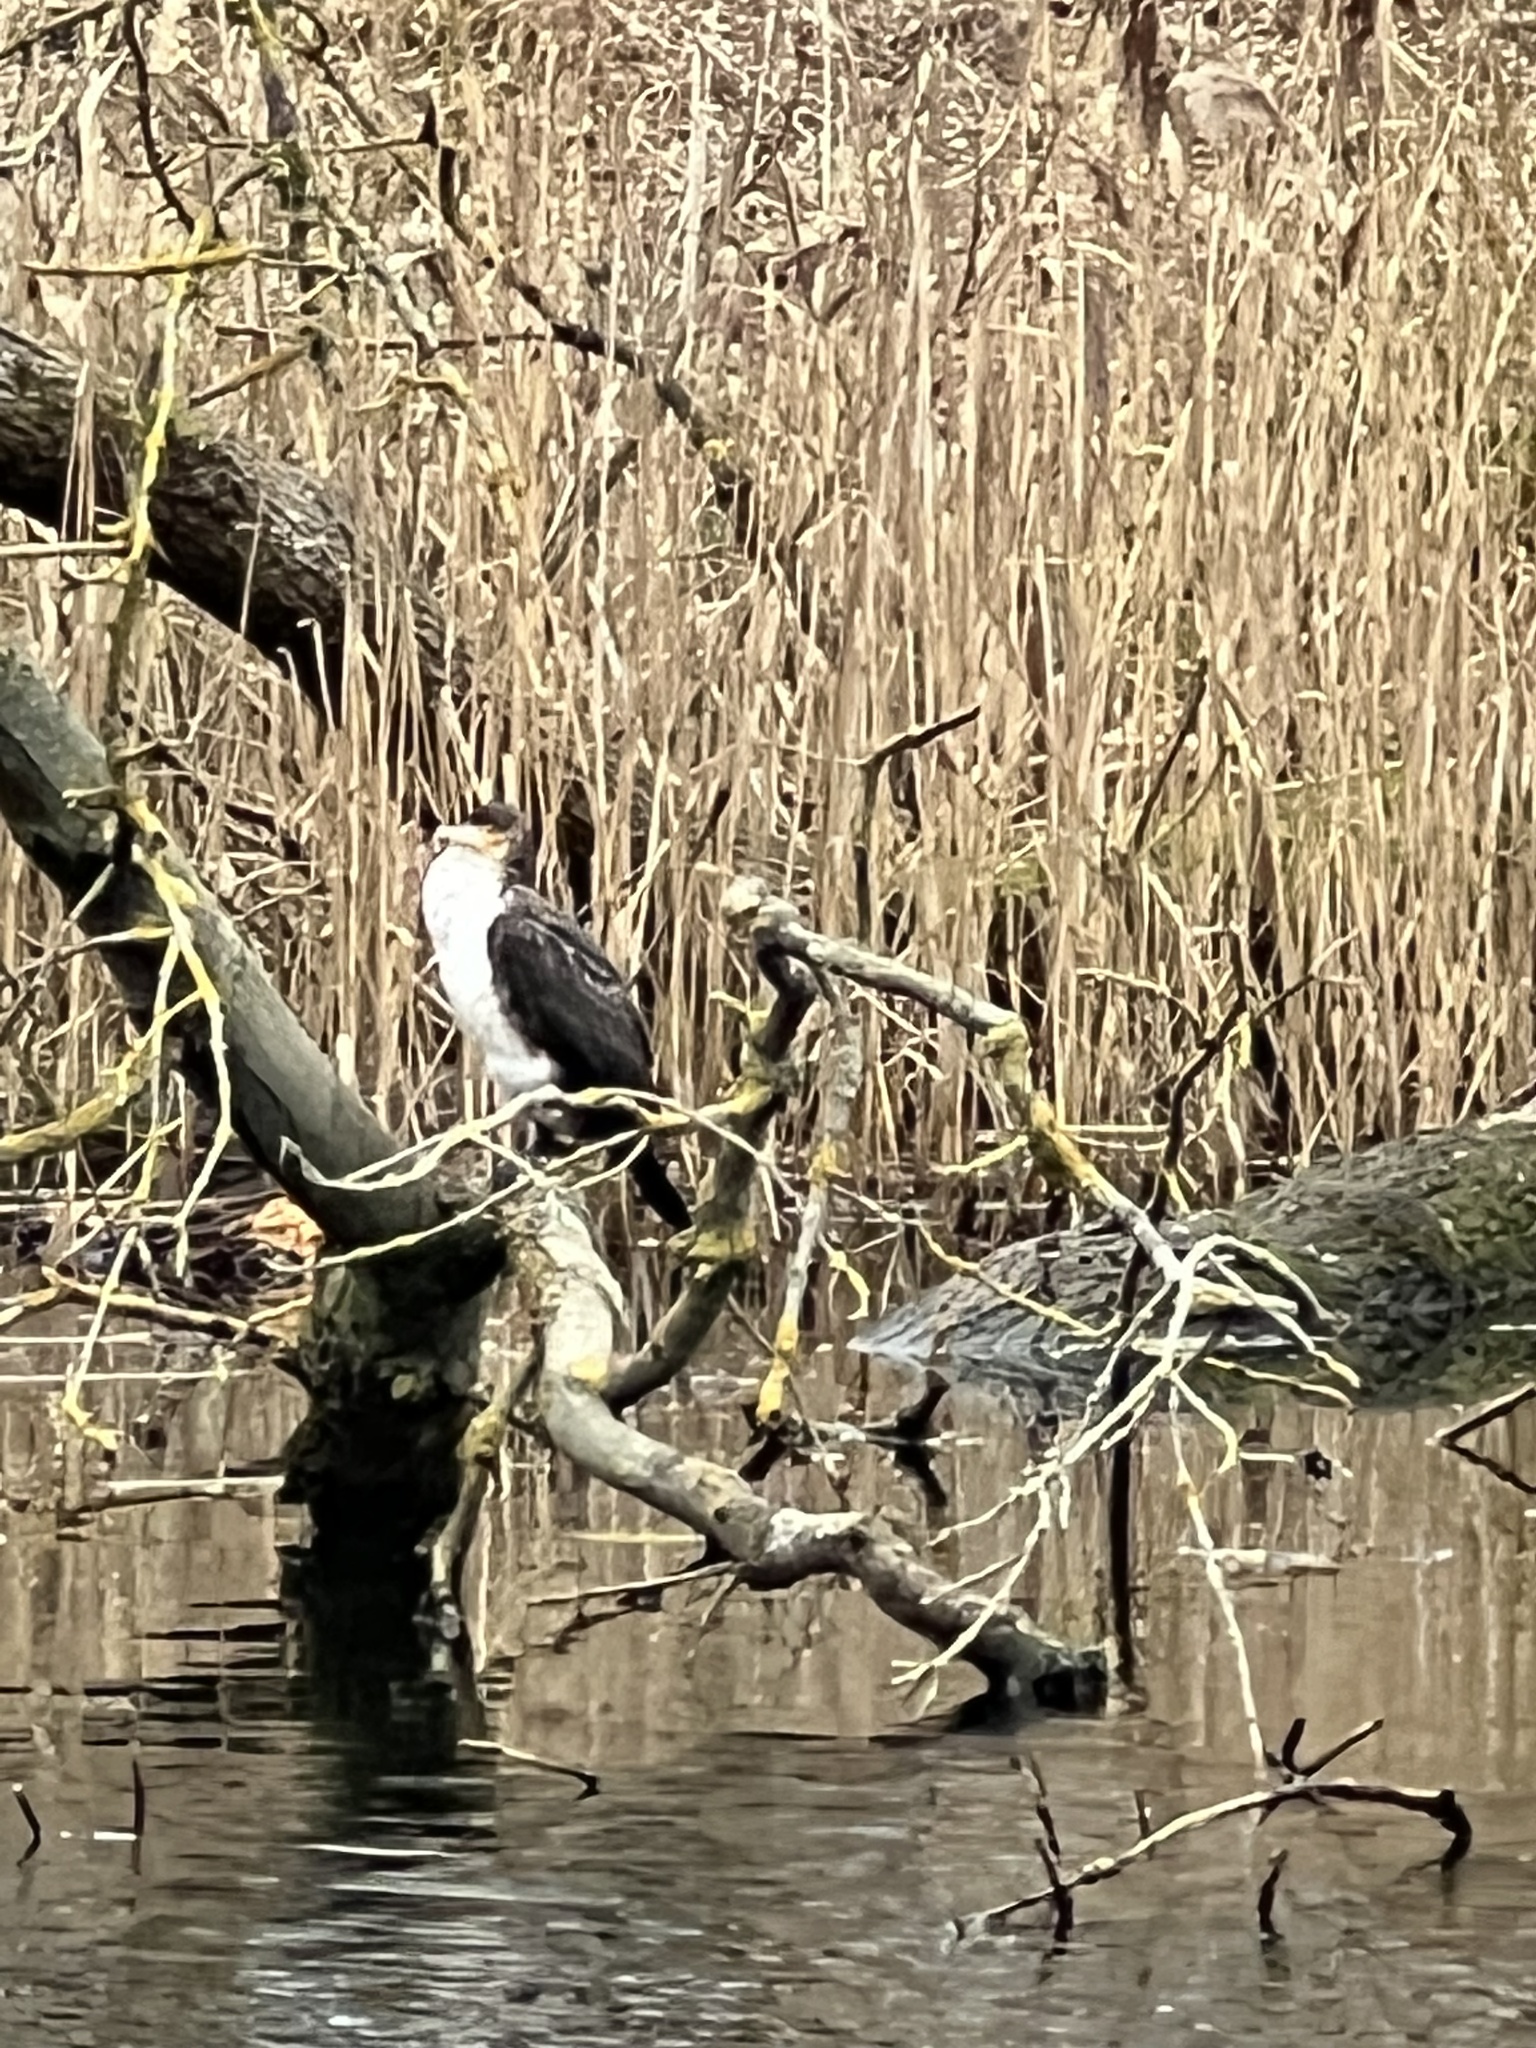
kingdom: Animalia
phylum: Chordata
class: Aves
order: Suliformes
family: Phalacrocoracidae
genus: Phalacrocorax
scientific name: Phalacrocorax carbo
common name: Great cormorant
